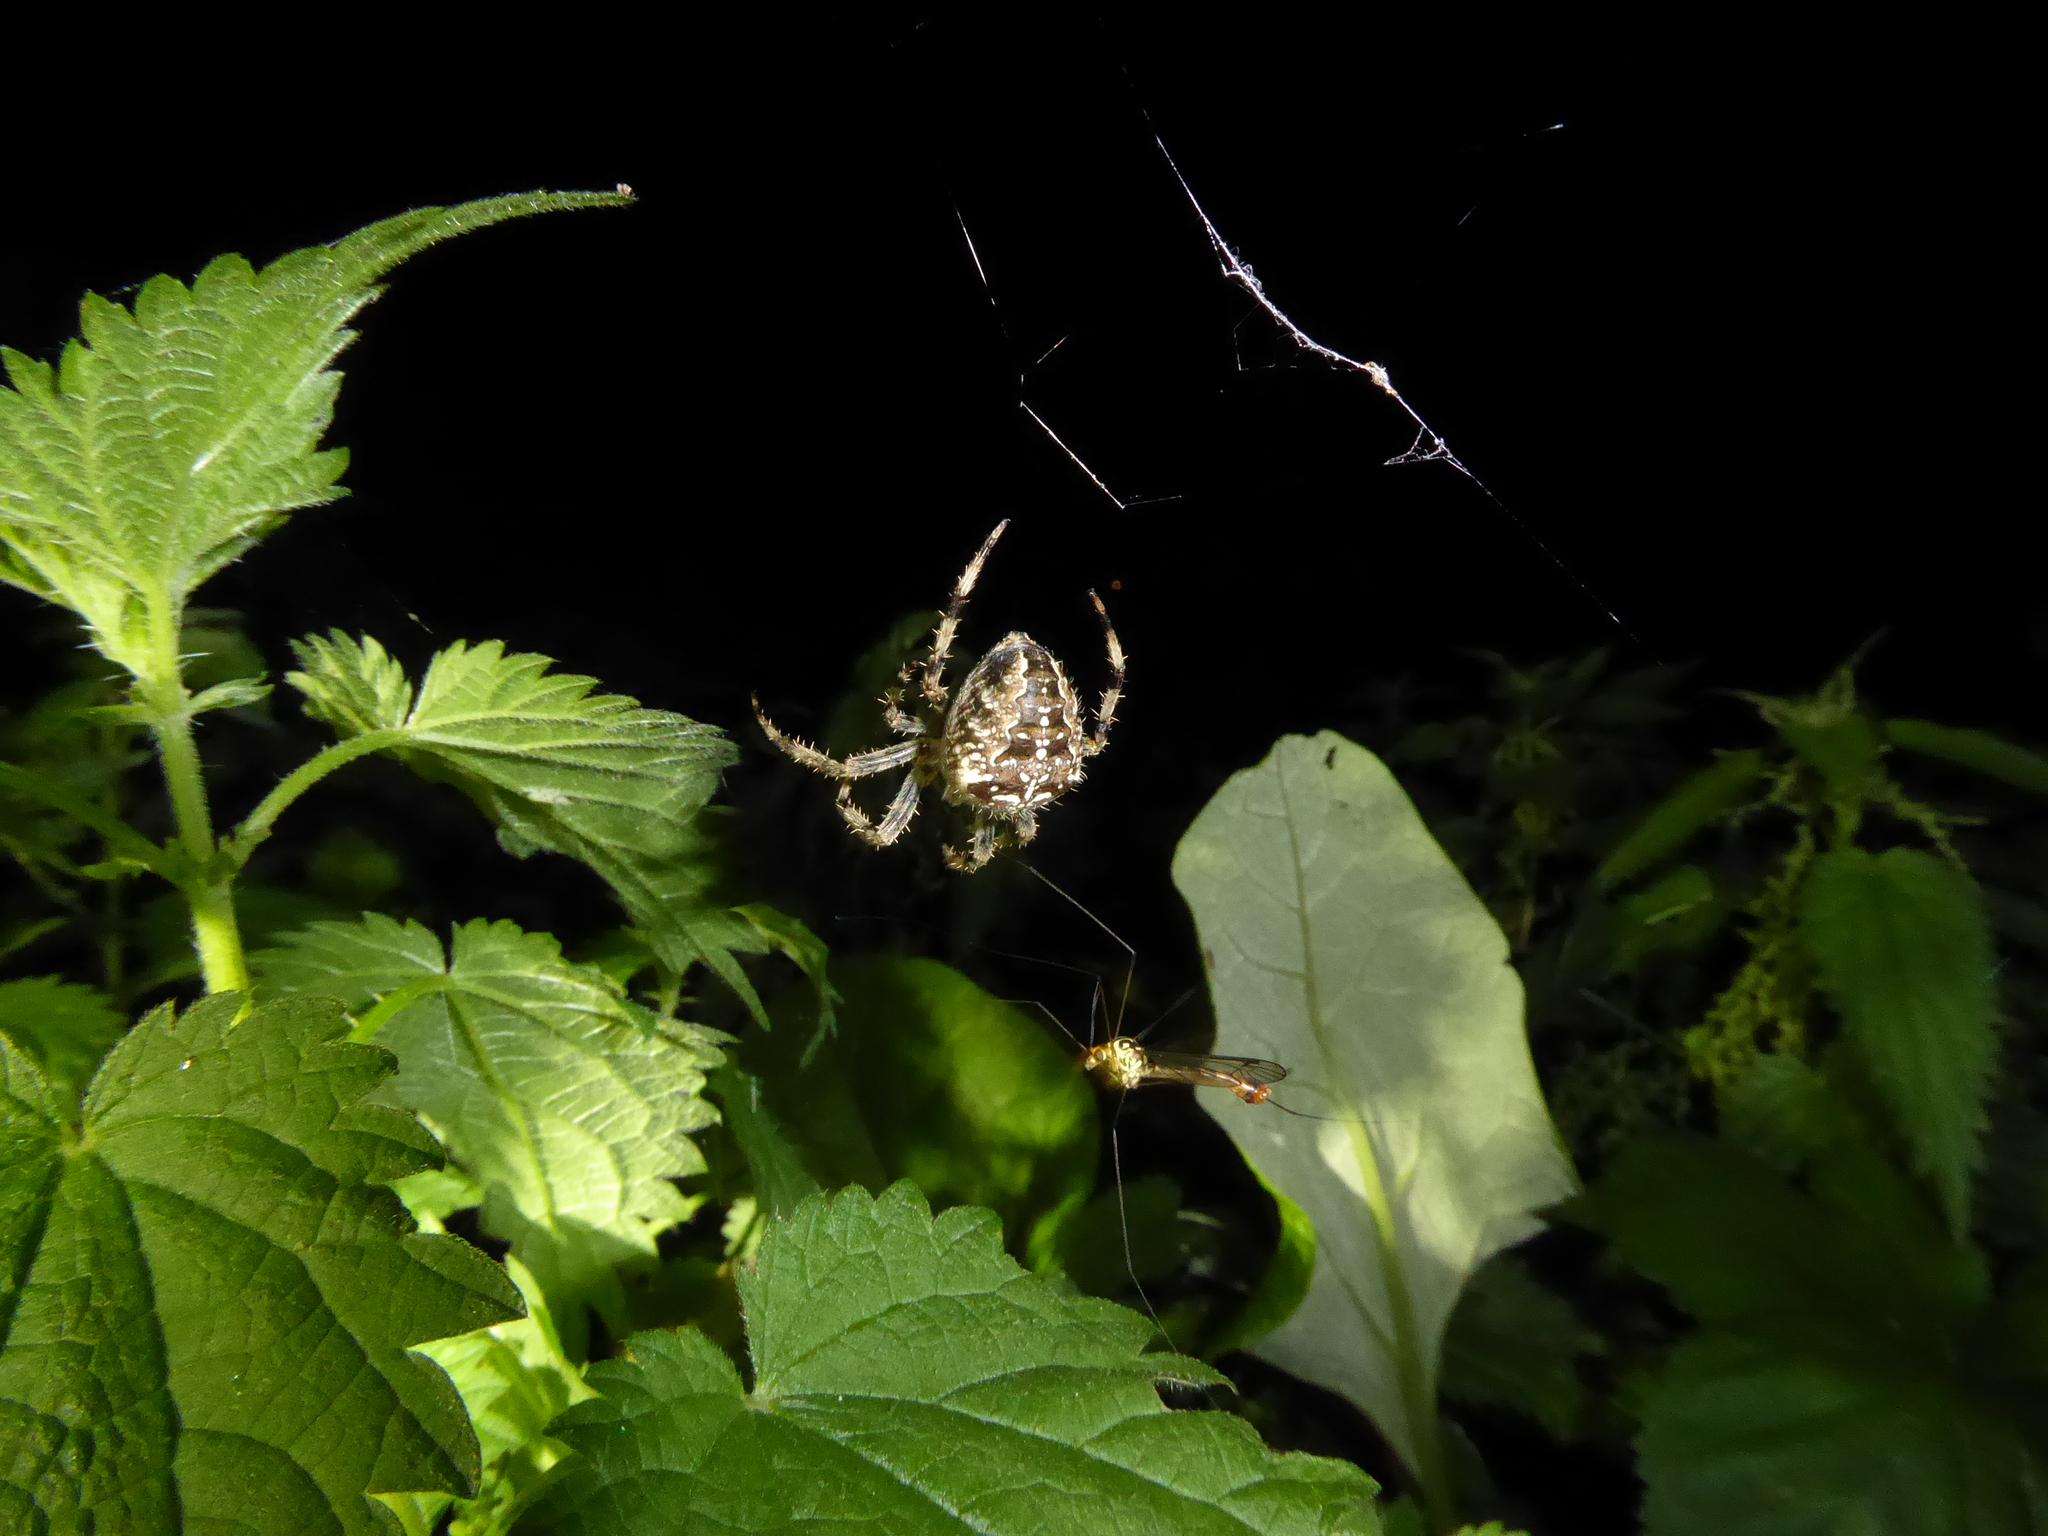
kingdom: Animalia
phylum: Arthropoda
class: Arachnida
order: Araneae
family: Araneidae
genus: Araneus
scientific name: Araneus diadematus
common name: Cross orbweaver
